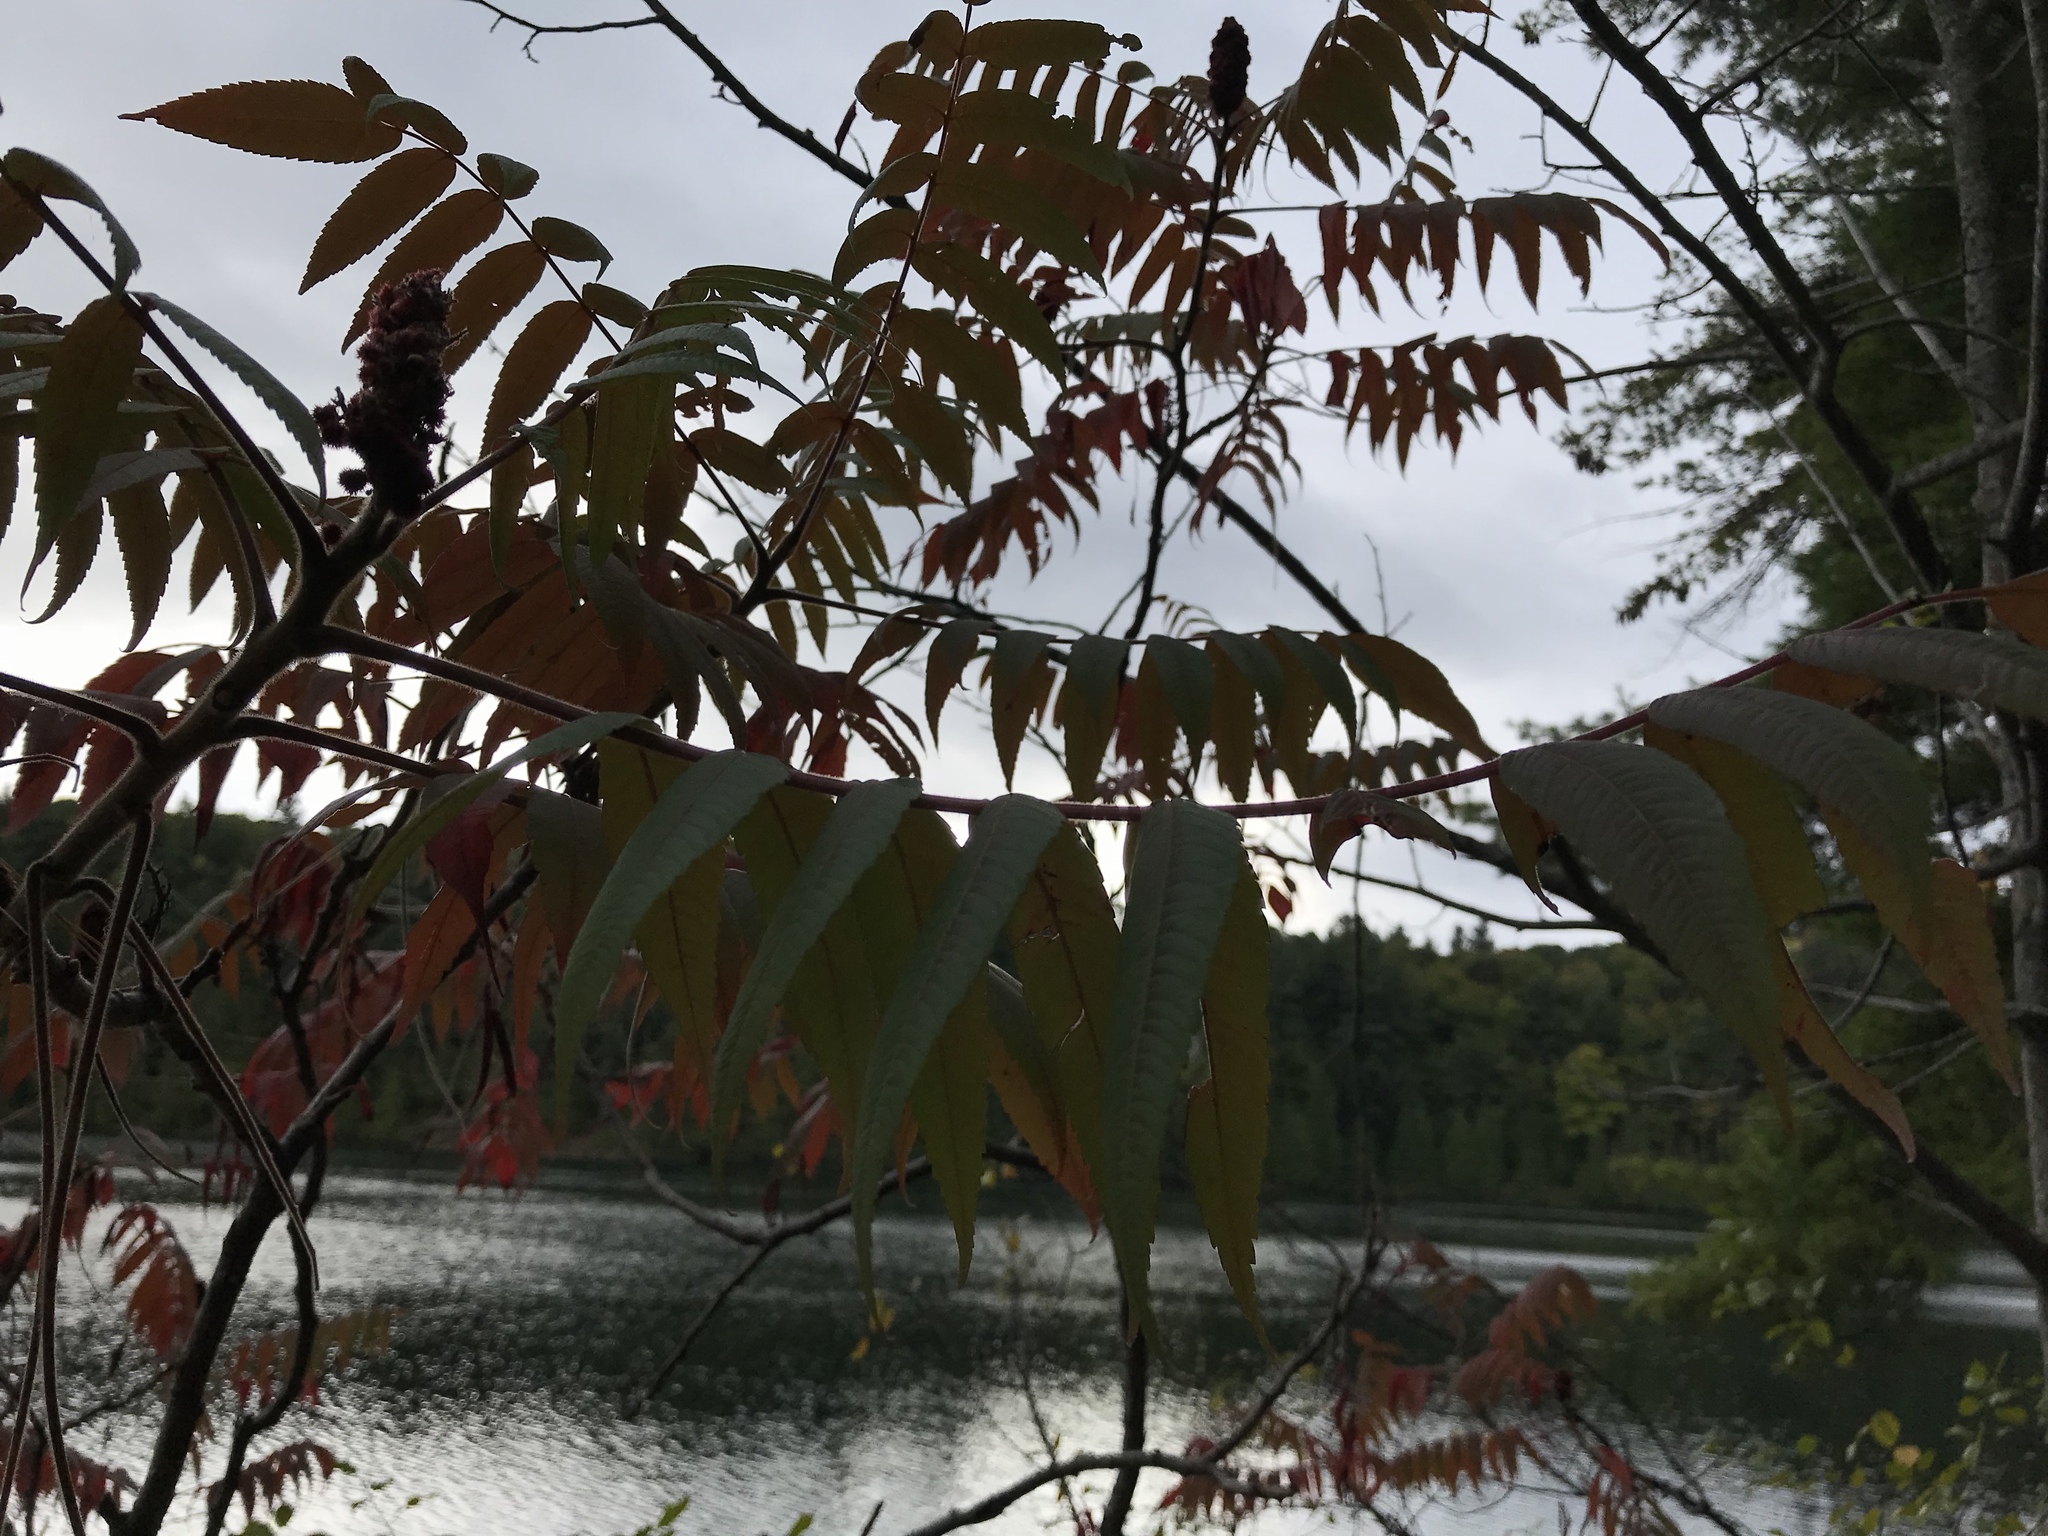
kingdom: Plantae
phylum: Tracheophyta
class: Magnoliopsida
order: Sapindales
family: Anacardiaceae
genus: Rhus
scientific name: Rhus typhina
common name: Staghorn sumac
